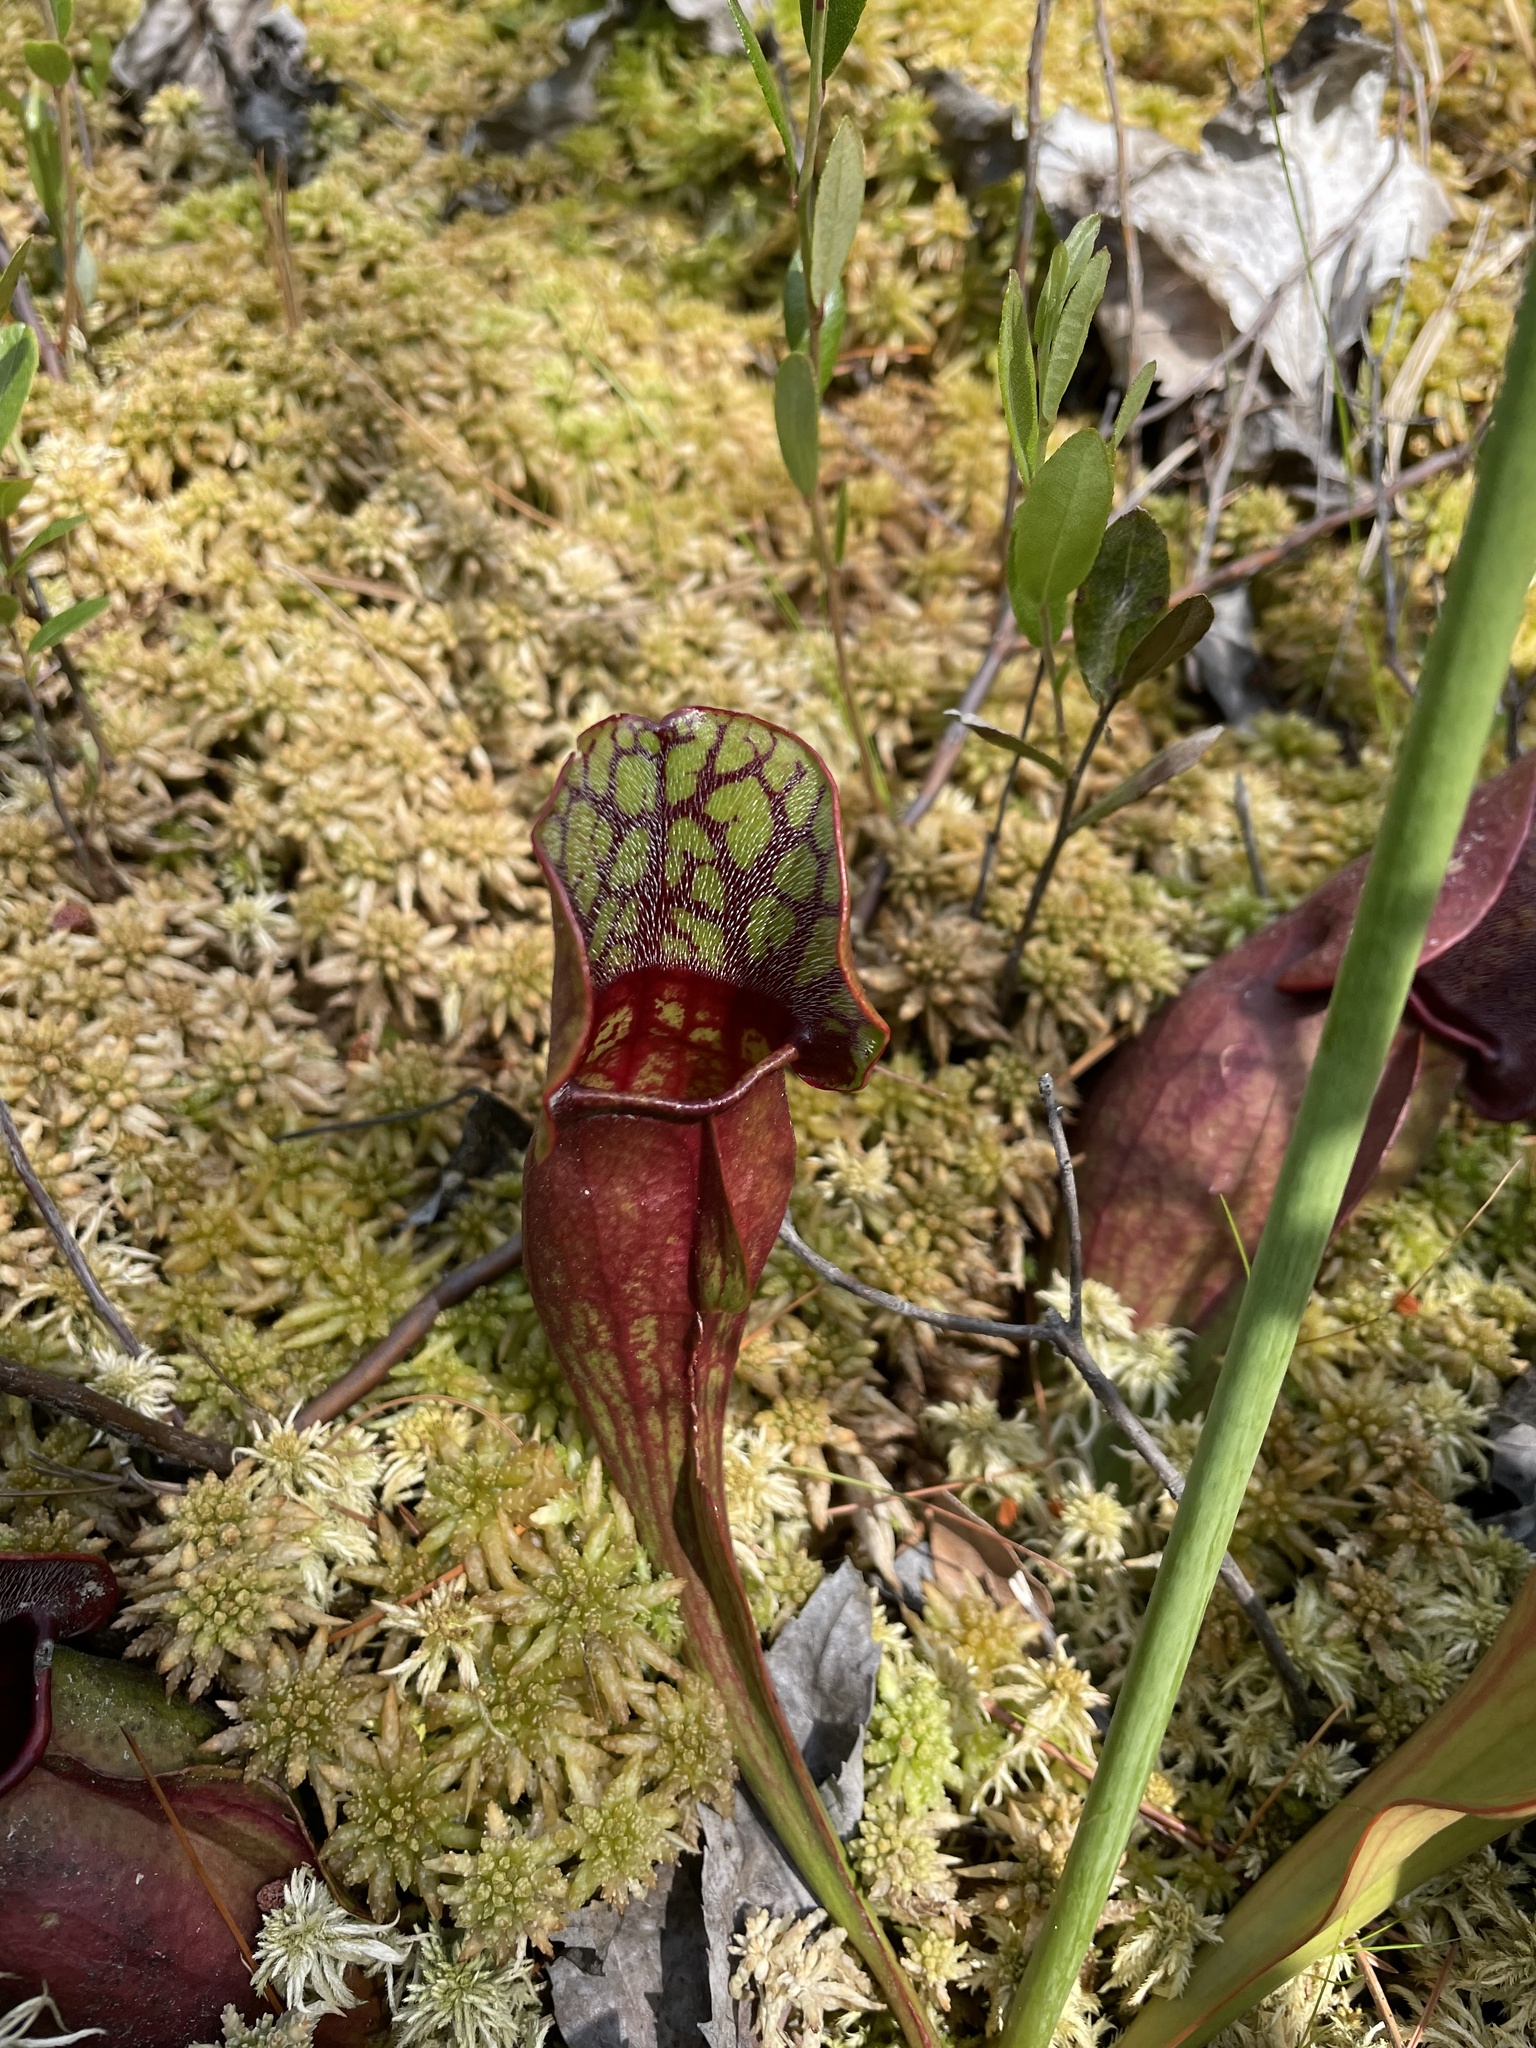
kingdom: Plantae
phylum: Tracheophyta
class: Magnoliopsida
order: Ericales
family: Sarraceniaceae
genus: Sarracenia
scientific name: Sarracenia purpurea
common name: Pitcherplant
